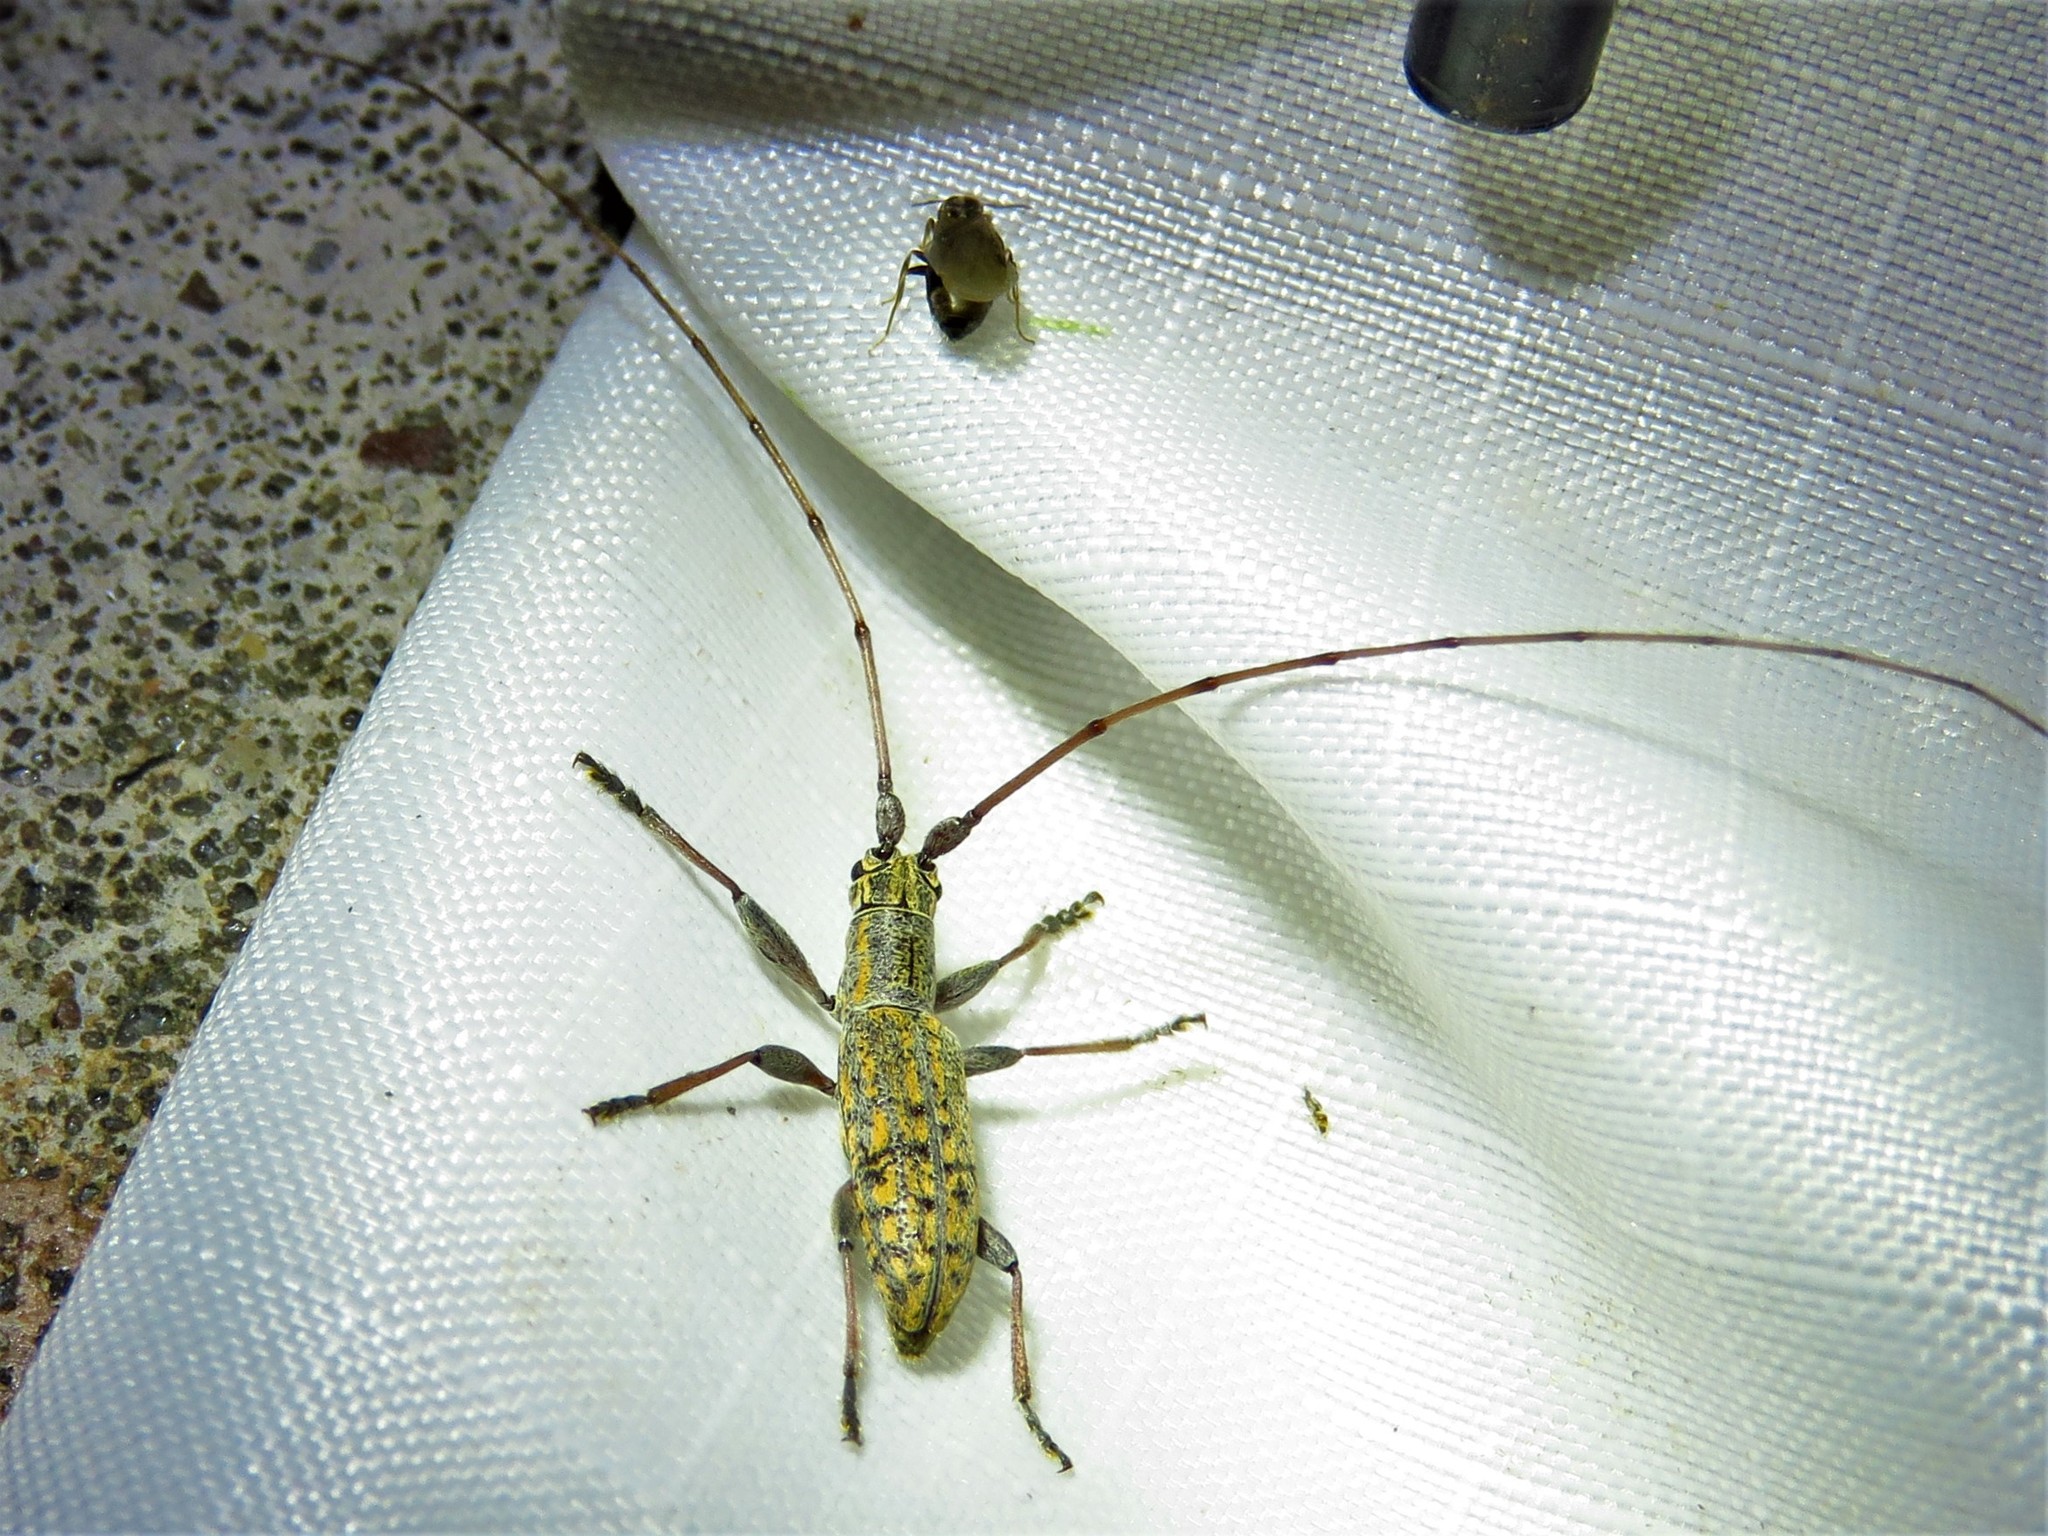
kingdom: Animalia
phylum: Arthropoda
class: Insecta
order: Coleoptera
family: Cerambycidae
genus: Dorcaschema
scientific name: Dorcaschema alternatum
